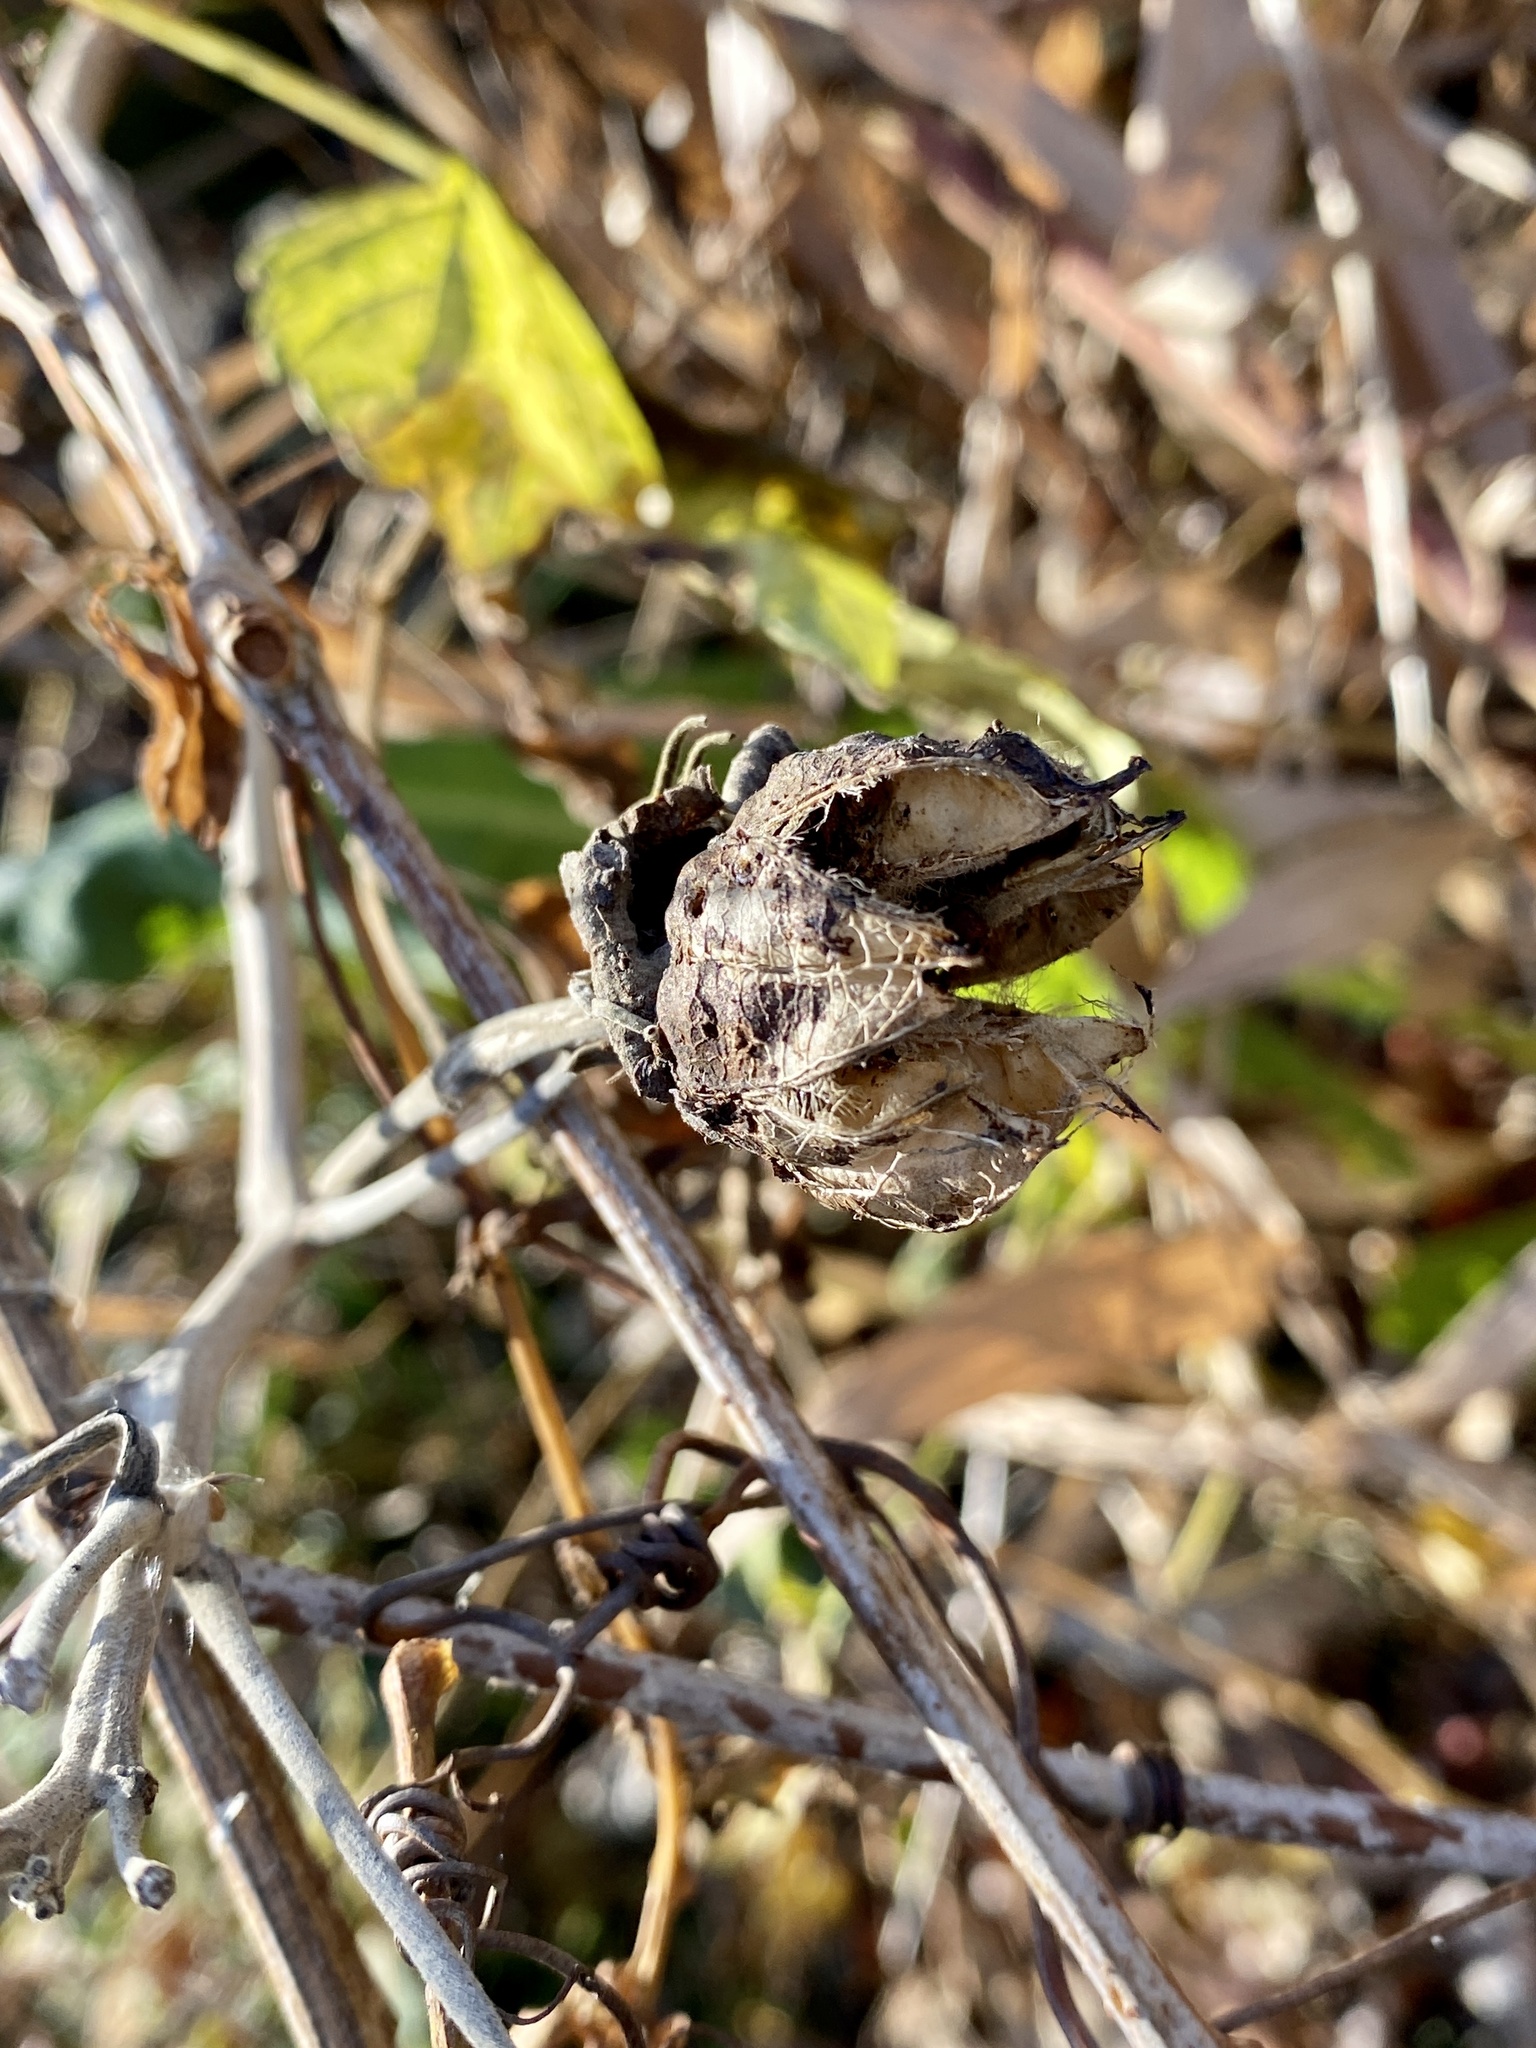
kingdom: Plantae
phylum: Tracheophyta
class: Magnoliopsida
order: Malvales
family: Malvaceae
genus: Hibiscus
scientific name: Hibiscus moscheutos
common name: Common rose-mallow
